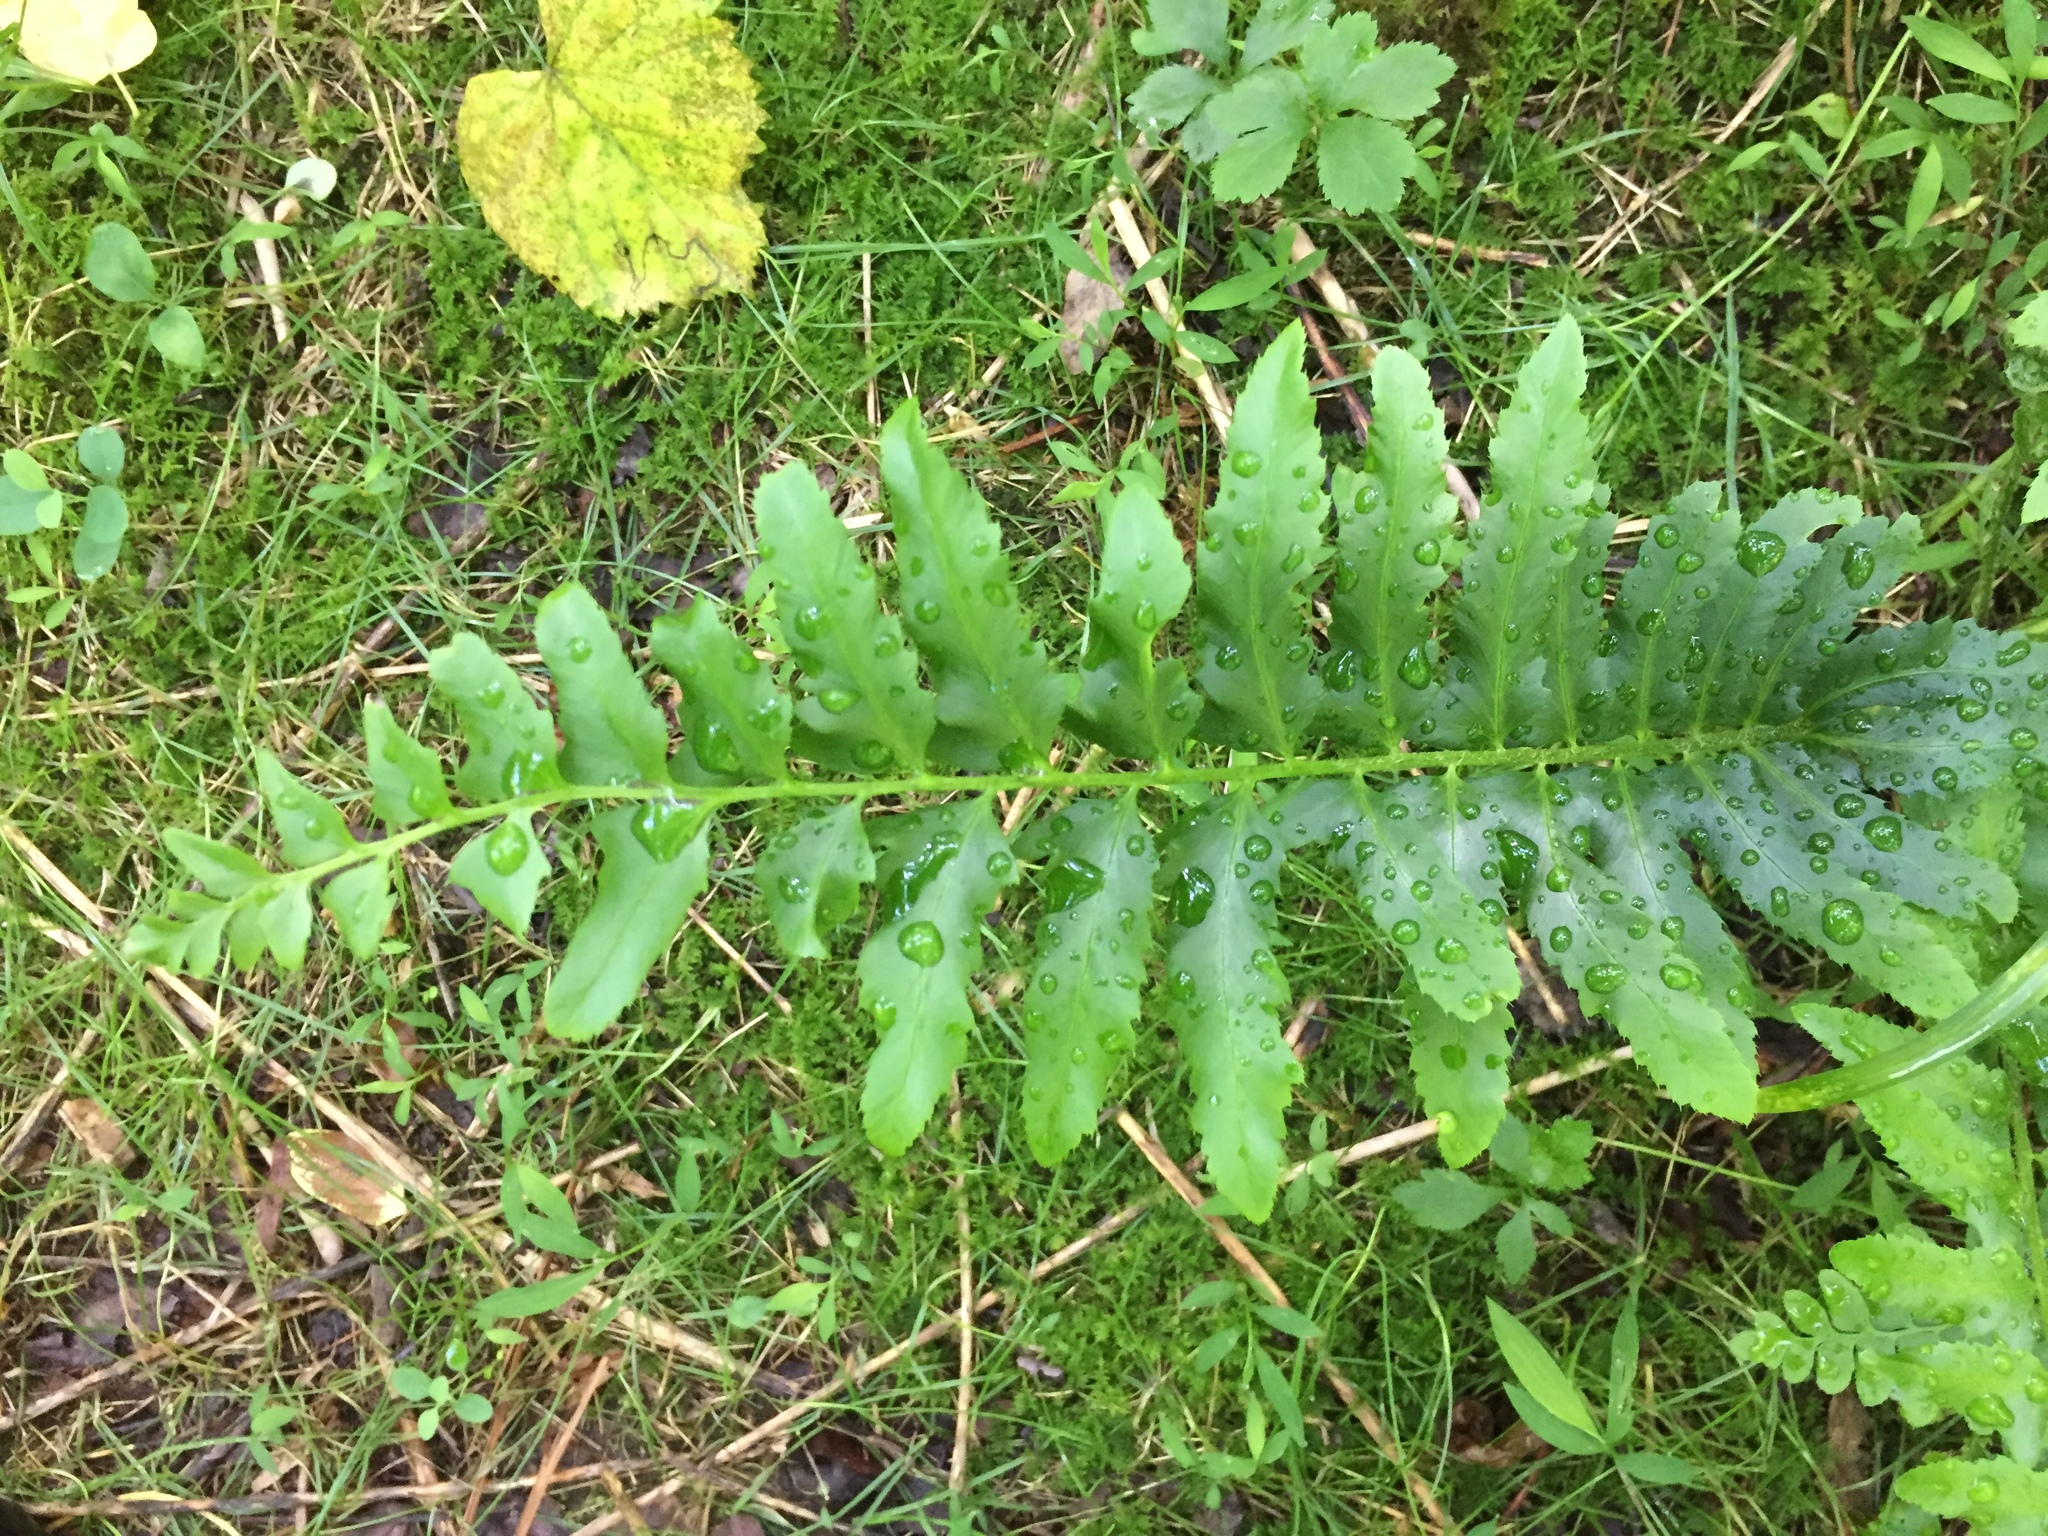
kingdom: Plantae
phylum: Tracheophyta
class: Polypodiopsida
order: Polypodiales
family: Dryopteridaceae
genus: Polystichum
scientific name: Polystichum acrostichoides
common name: Christmas fern
